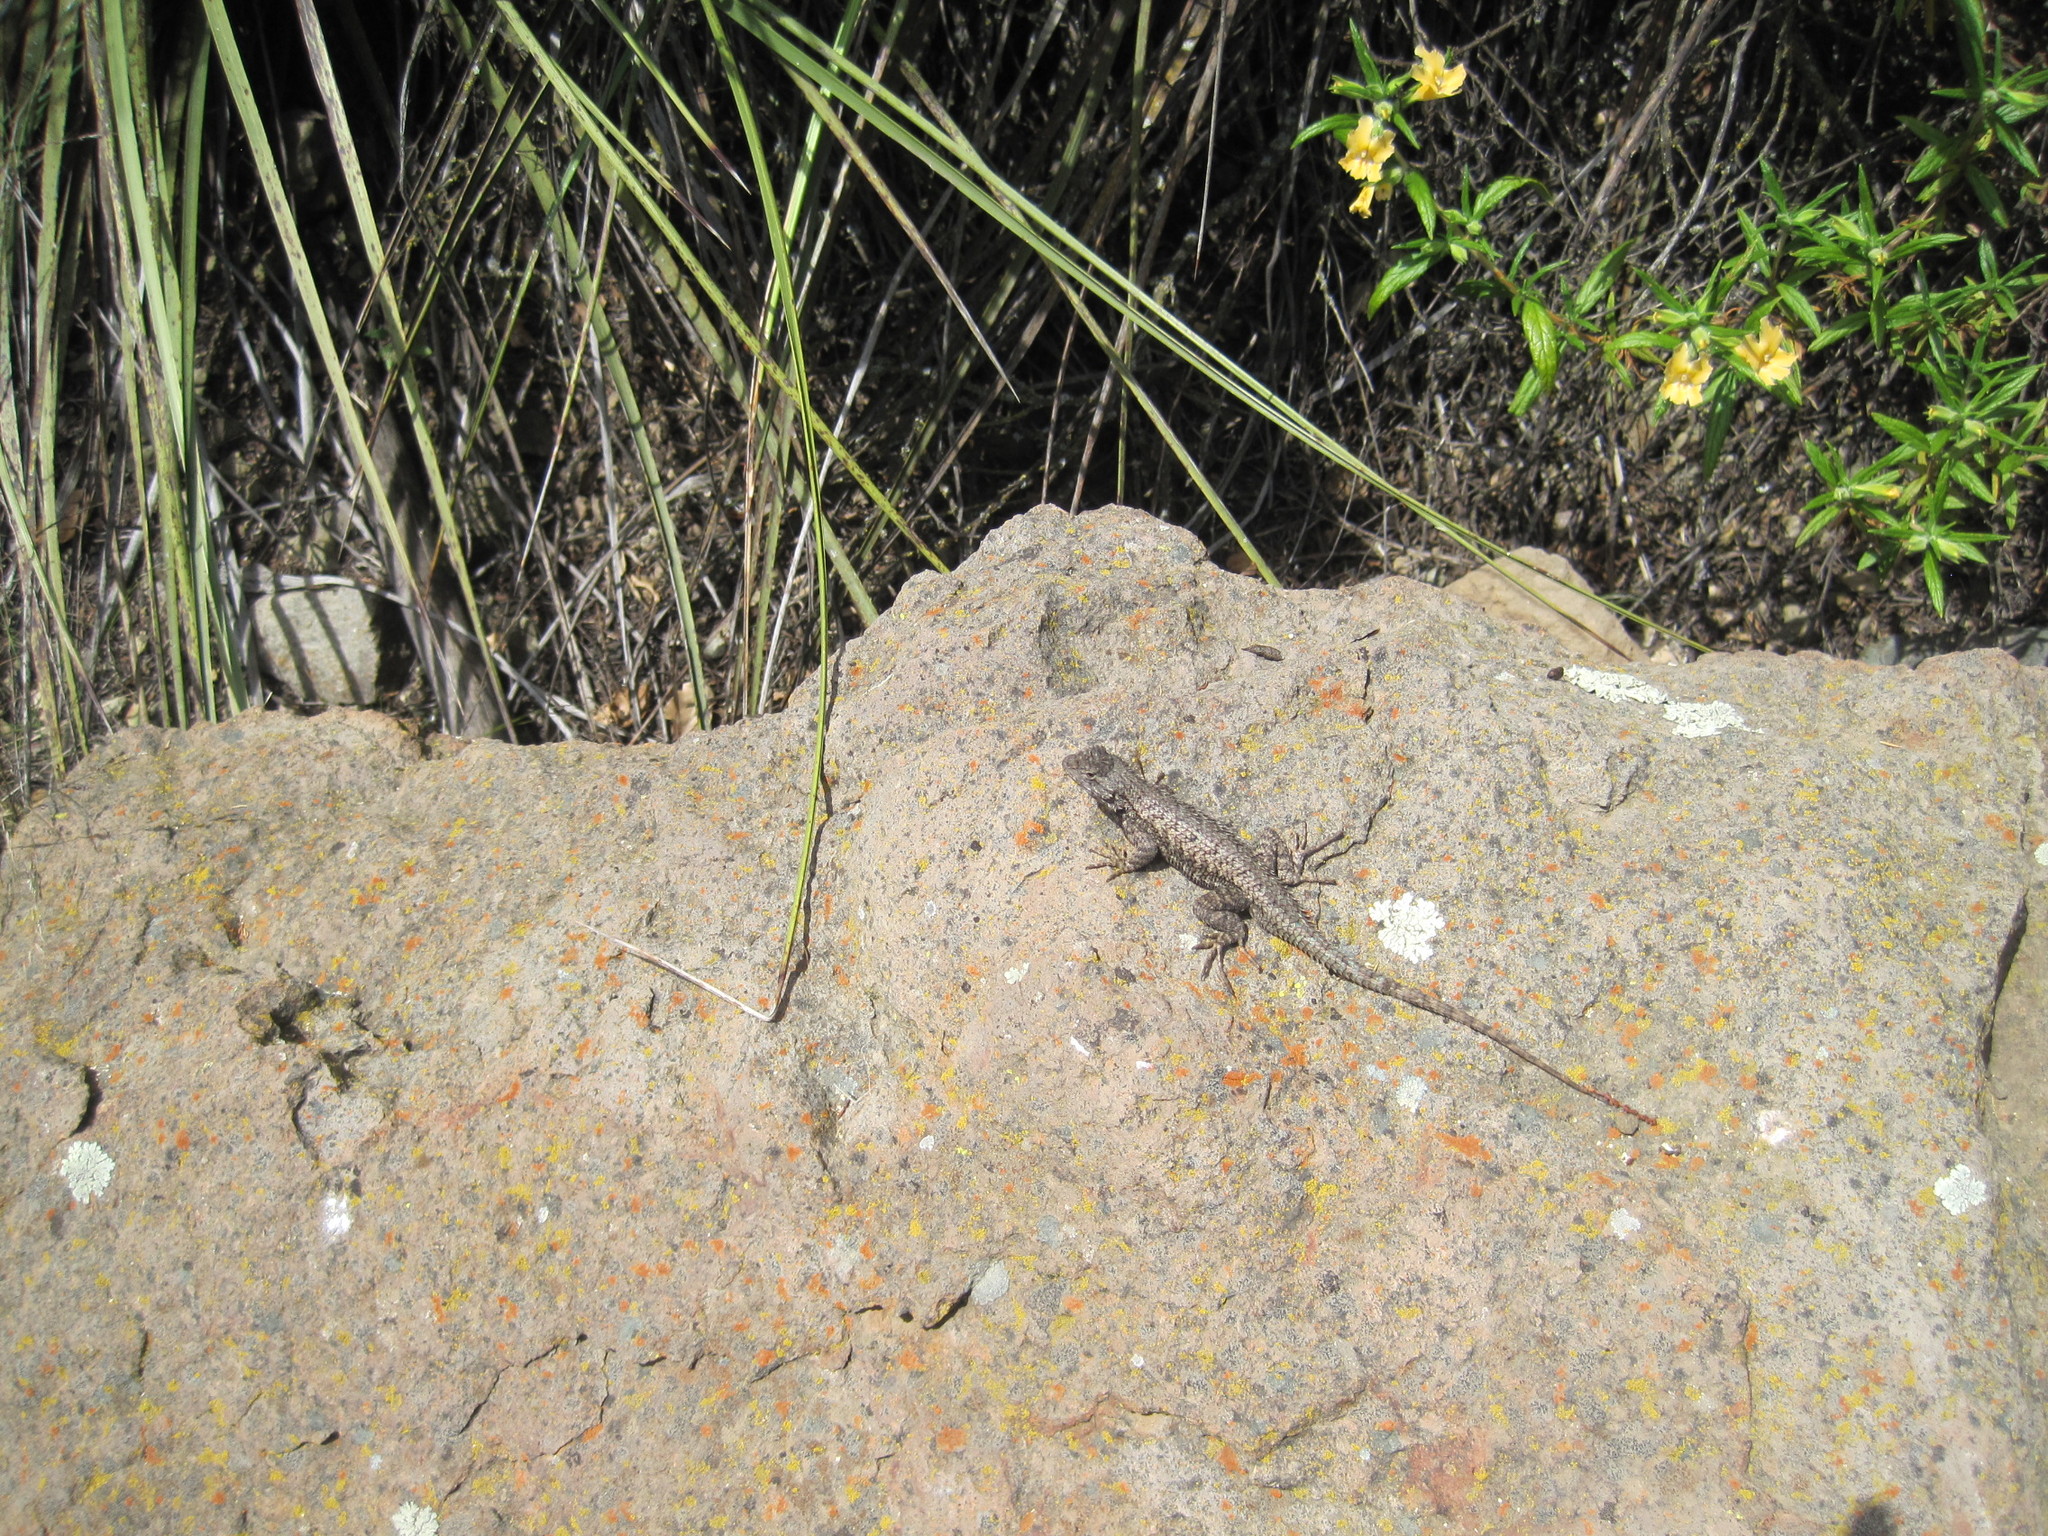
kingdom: Animalia
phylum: Chordata
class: Squamata
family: Phrynosomatidae
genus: Sceloporus
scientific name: Sceloporus occidentalis
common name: Western fence lizard
